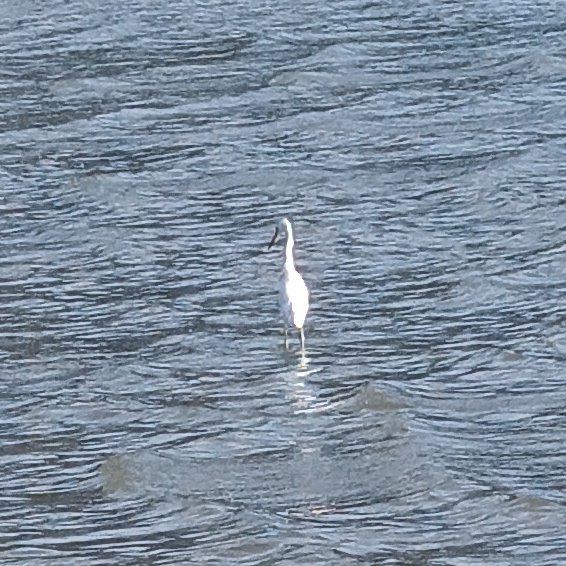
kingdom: Animalia
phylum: Chordata
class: Aves
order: Pelecaniformes
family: Ardeidae
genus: Egretta
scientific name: Egretta thula
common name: Snowy egret
